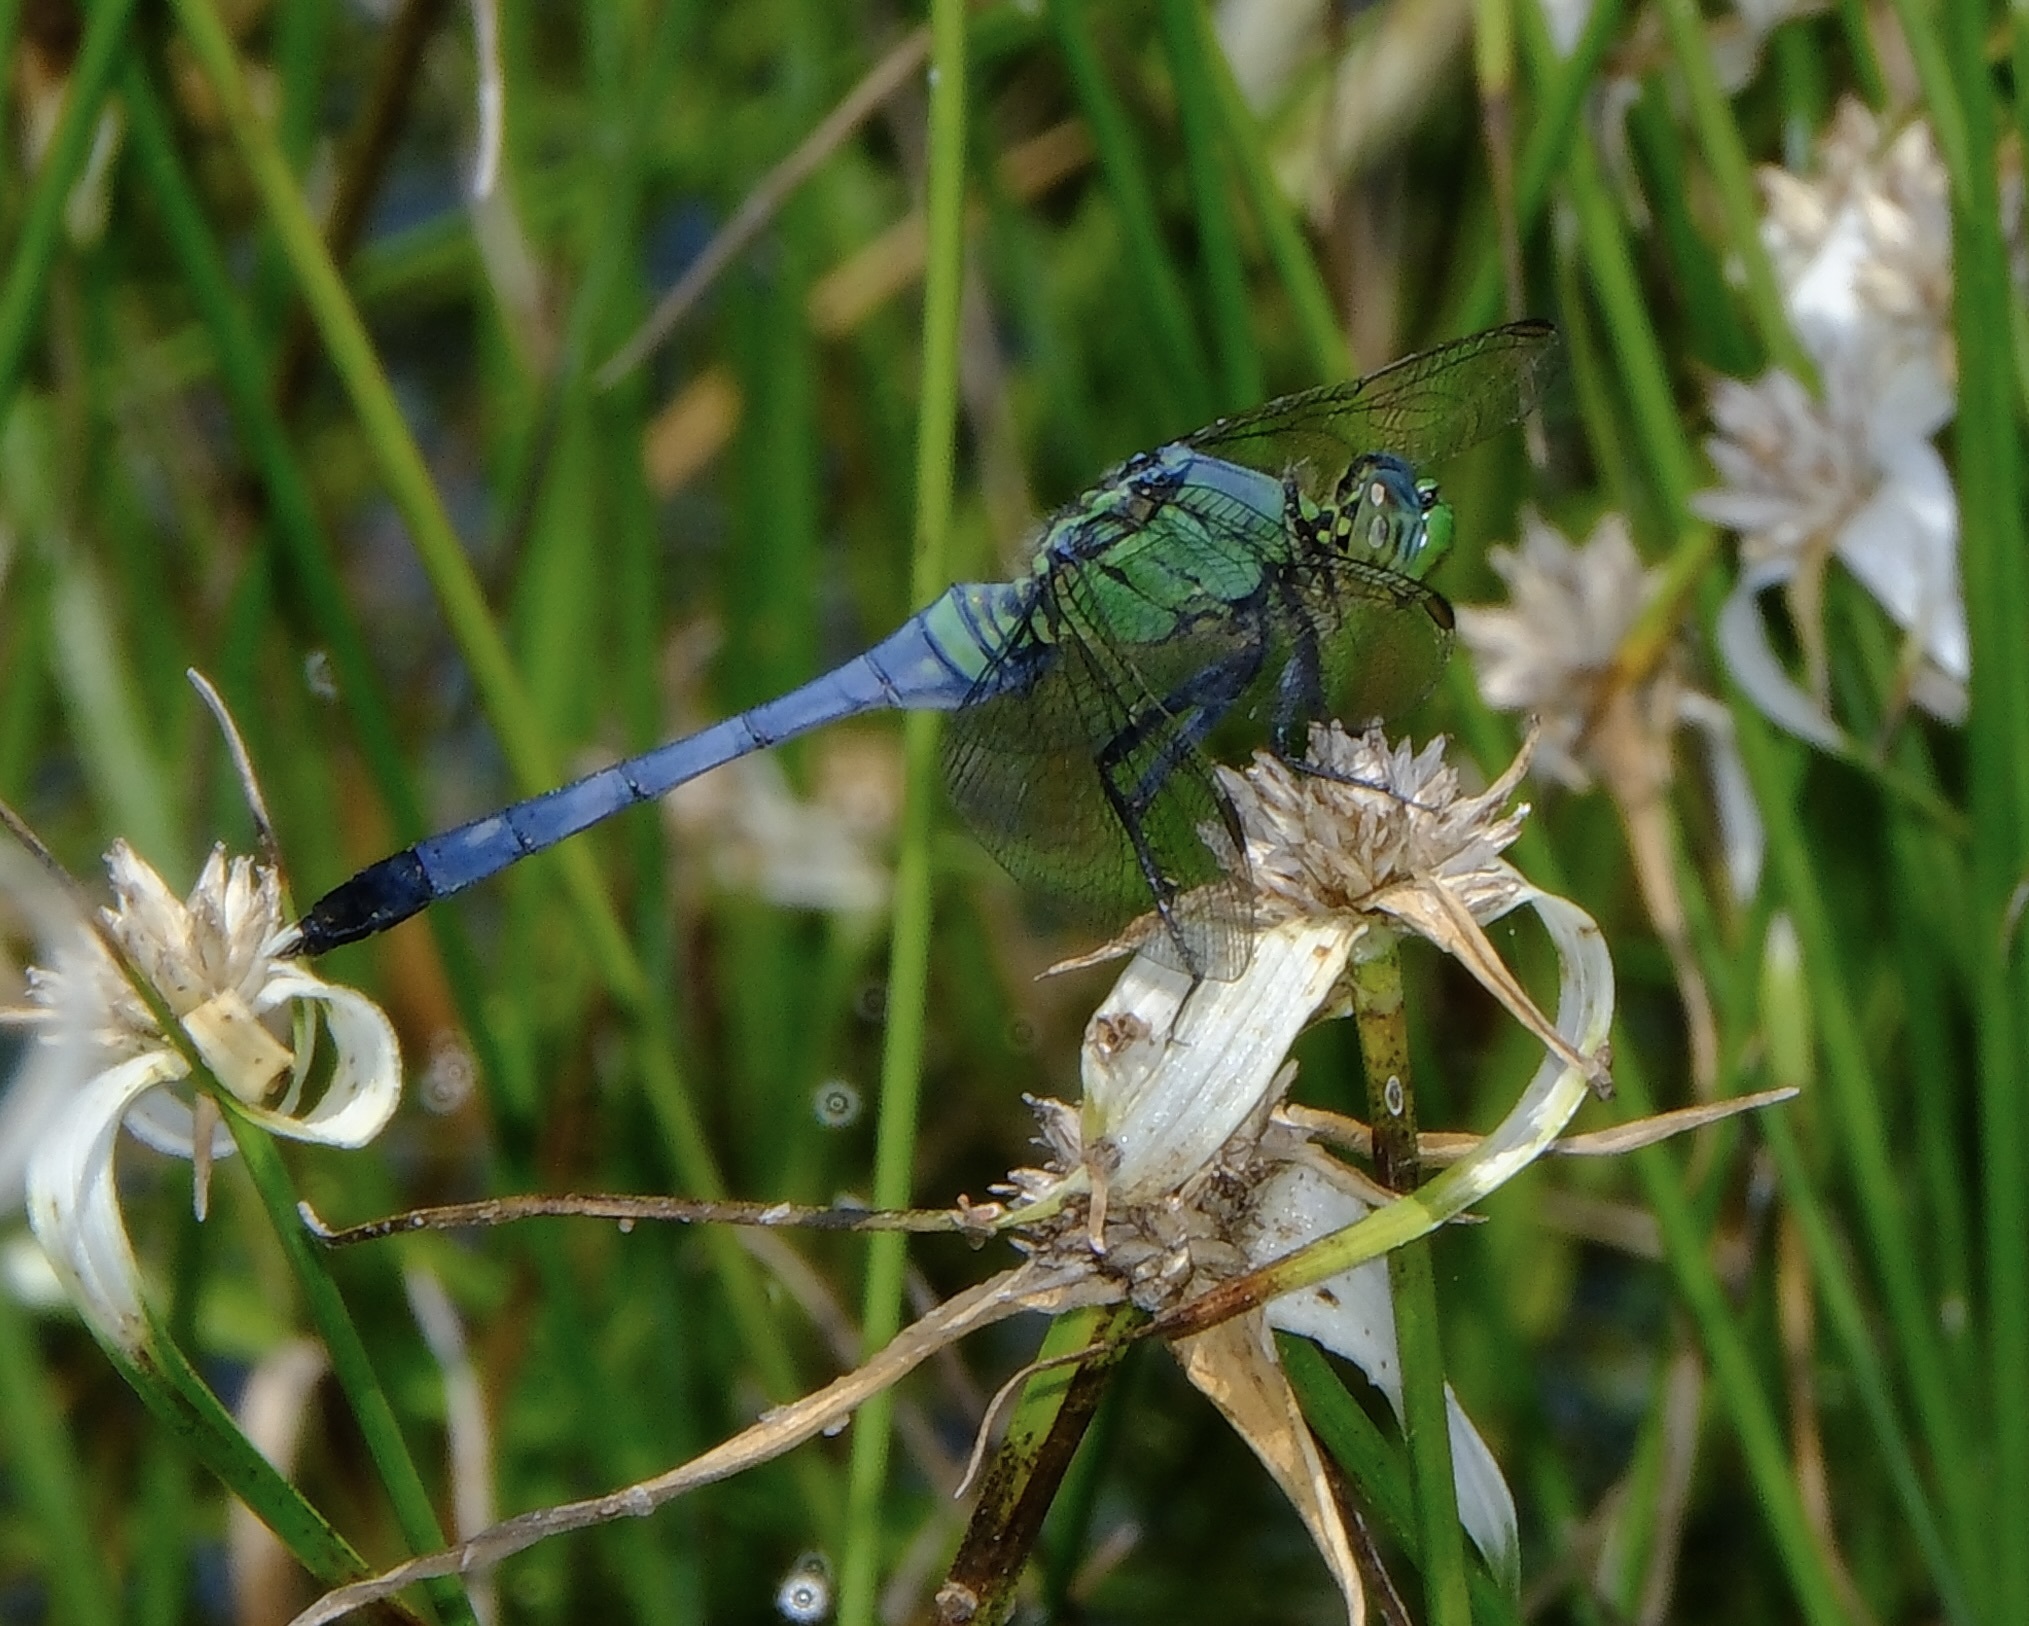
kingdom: Animalia
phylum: Arthropoda
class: Insecta
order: Odonata
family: Libellulidae
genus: Erythemis
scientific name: Erythemis simplicicollis
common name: Eastern pondhawk
